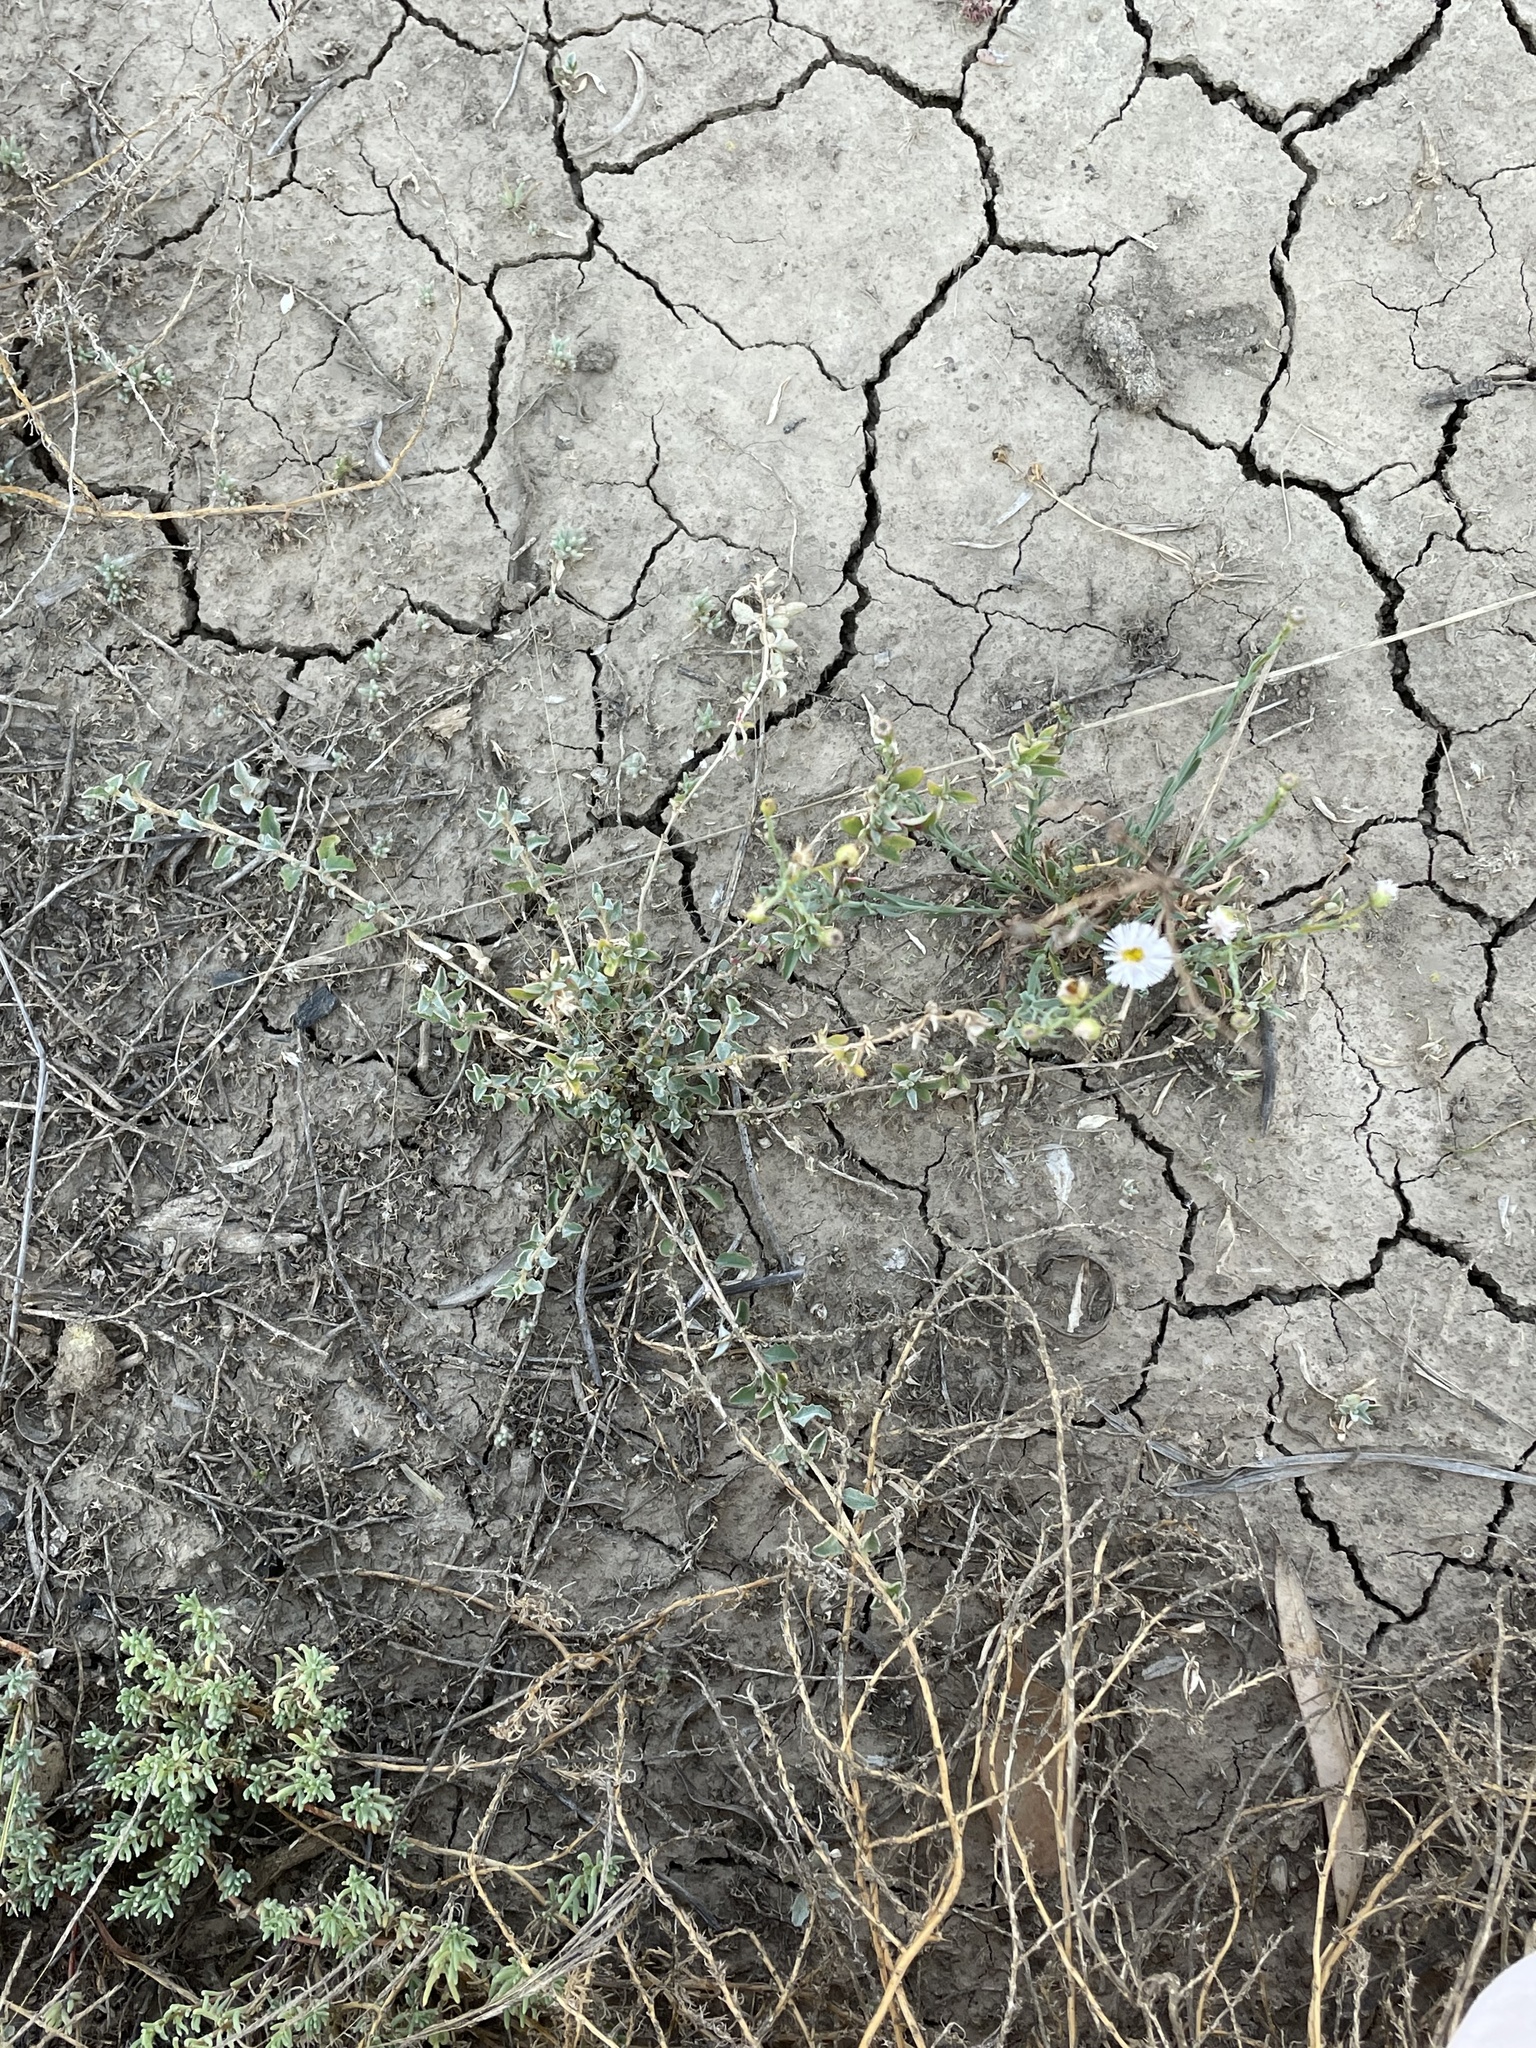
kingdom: Plantae
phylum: Tracheophyta
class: Magnoliopsida
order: Asterales
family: Asteraceae
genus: Minuria
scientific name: Minuria integerrima
